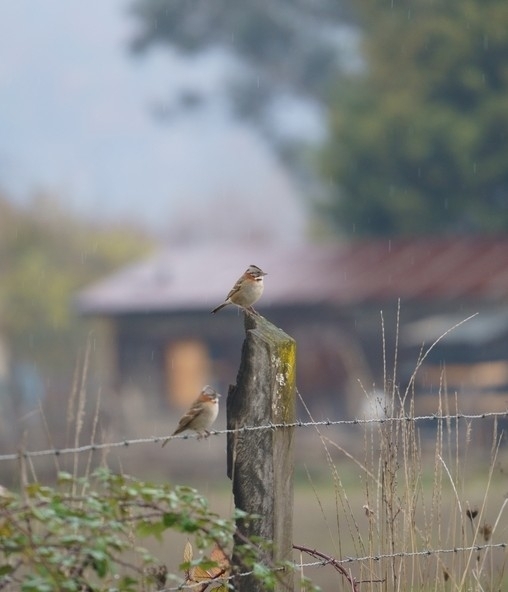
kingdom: Animalia
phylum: Chordata
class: Aves
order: Passeriformes
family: Passerellidae
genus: Zonotrichia
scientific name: Zonotrichia capensis
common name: Rufous-collared sparrow
